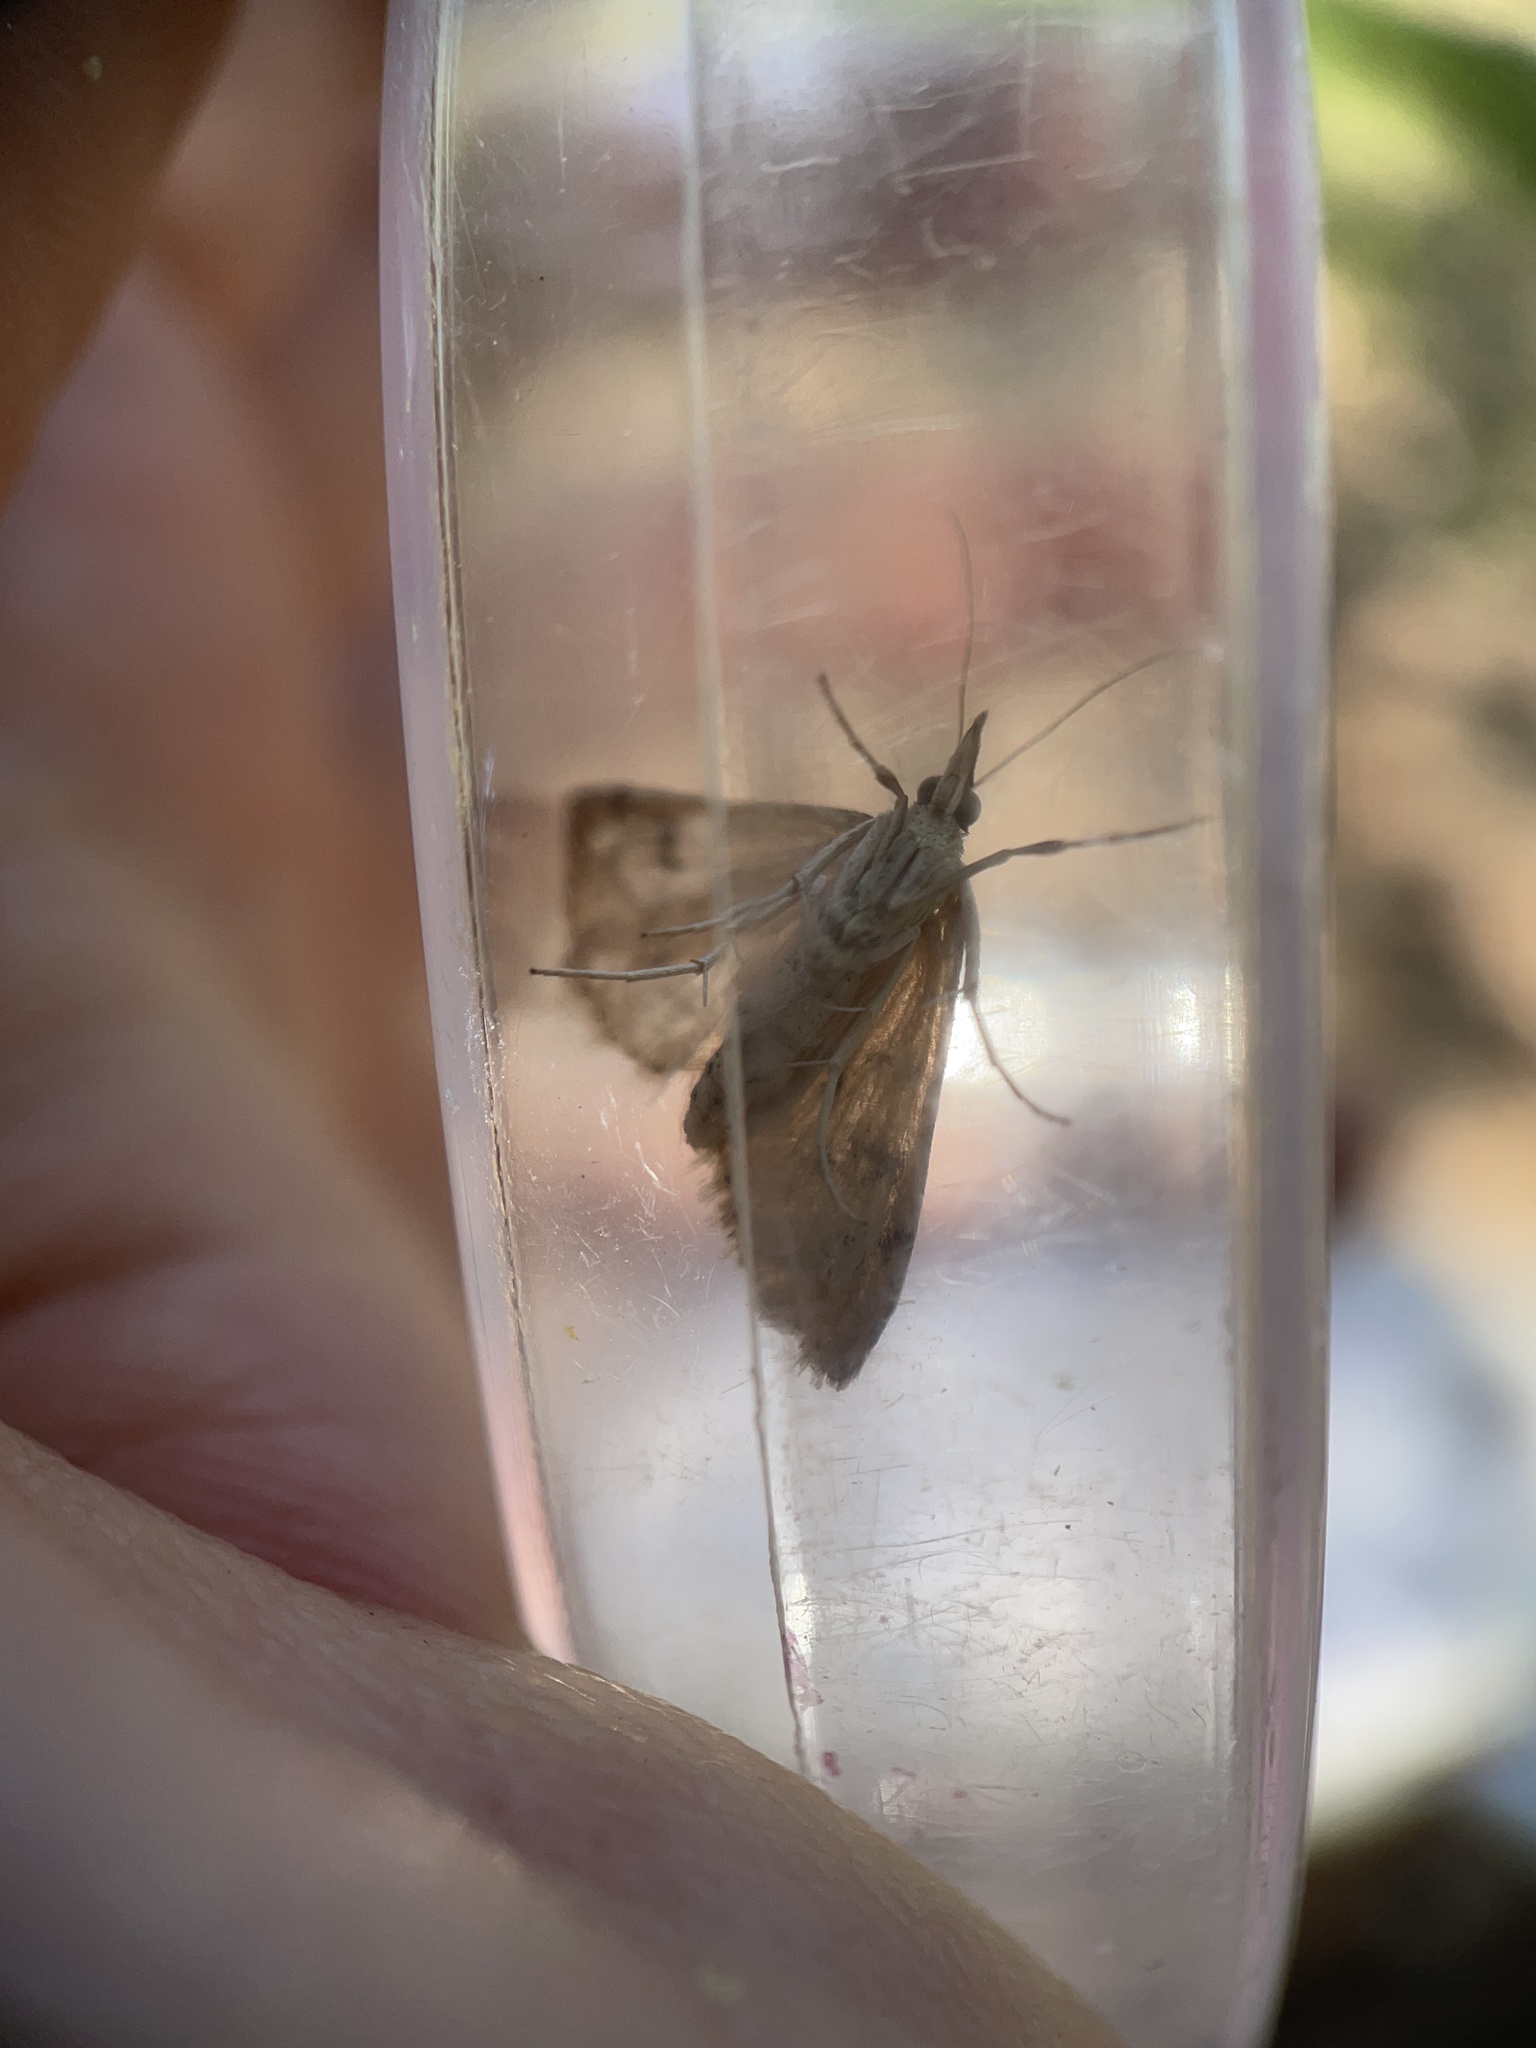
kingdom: Animalia
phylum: Arthropoda
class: Insecta
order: Lepidoptera
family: Crambidae
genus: Udea
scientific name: Udea rubigalis
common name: Celery leaftier moth
